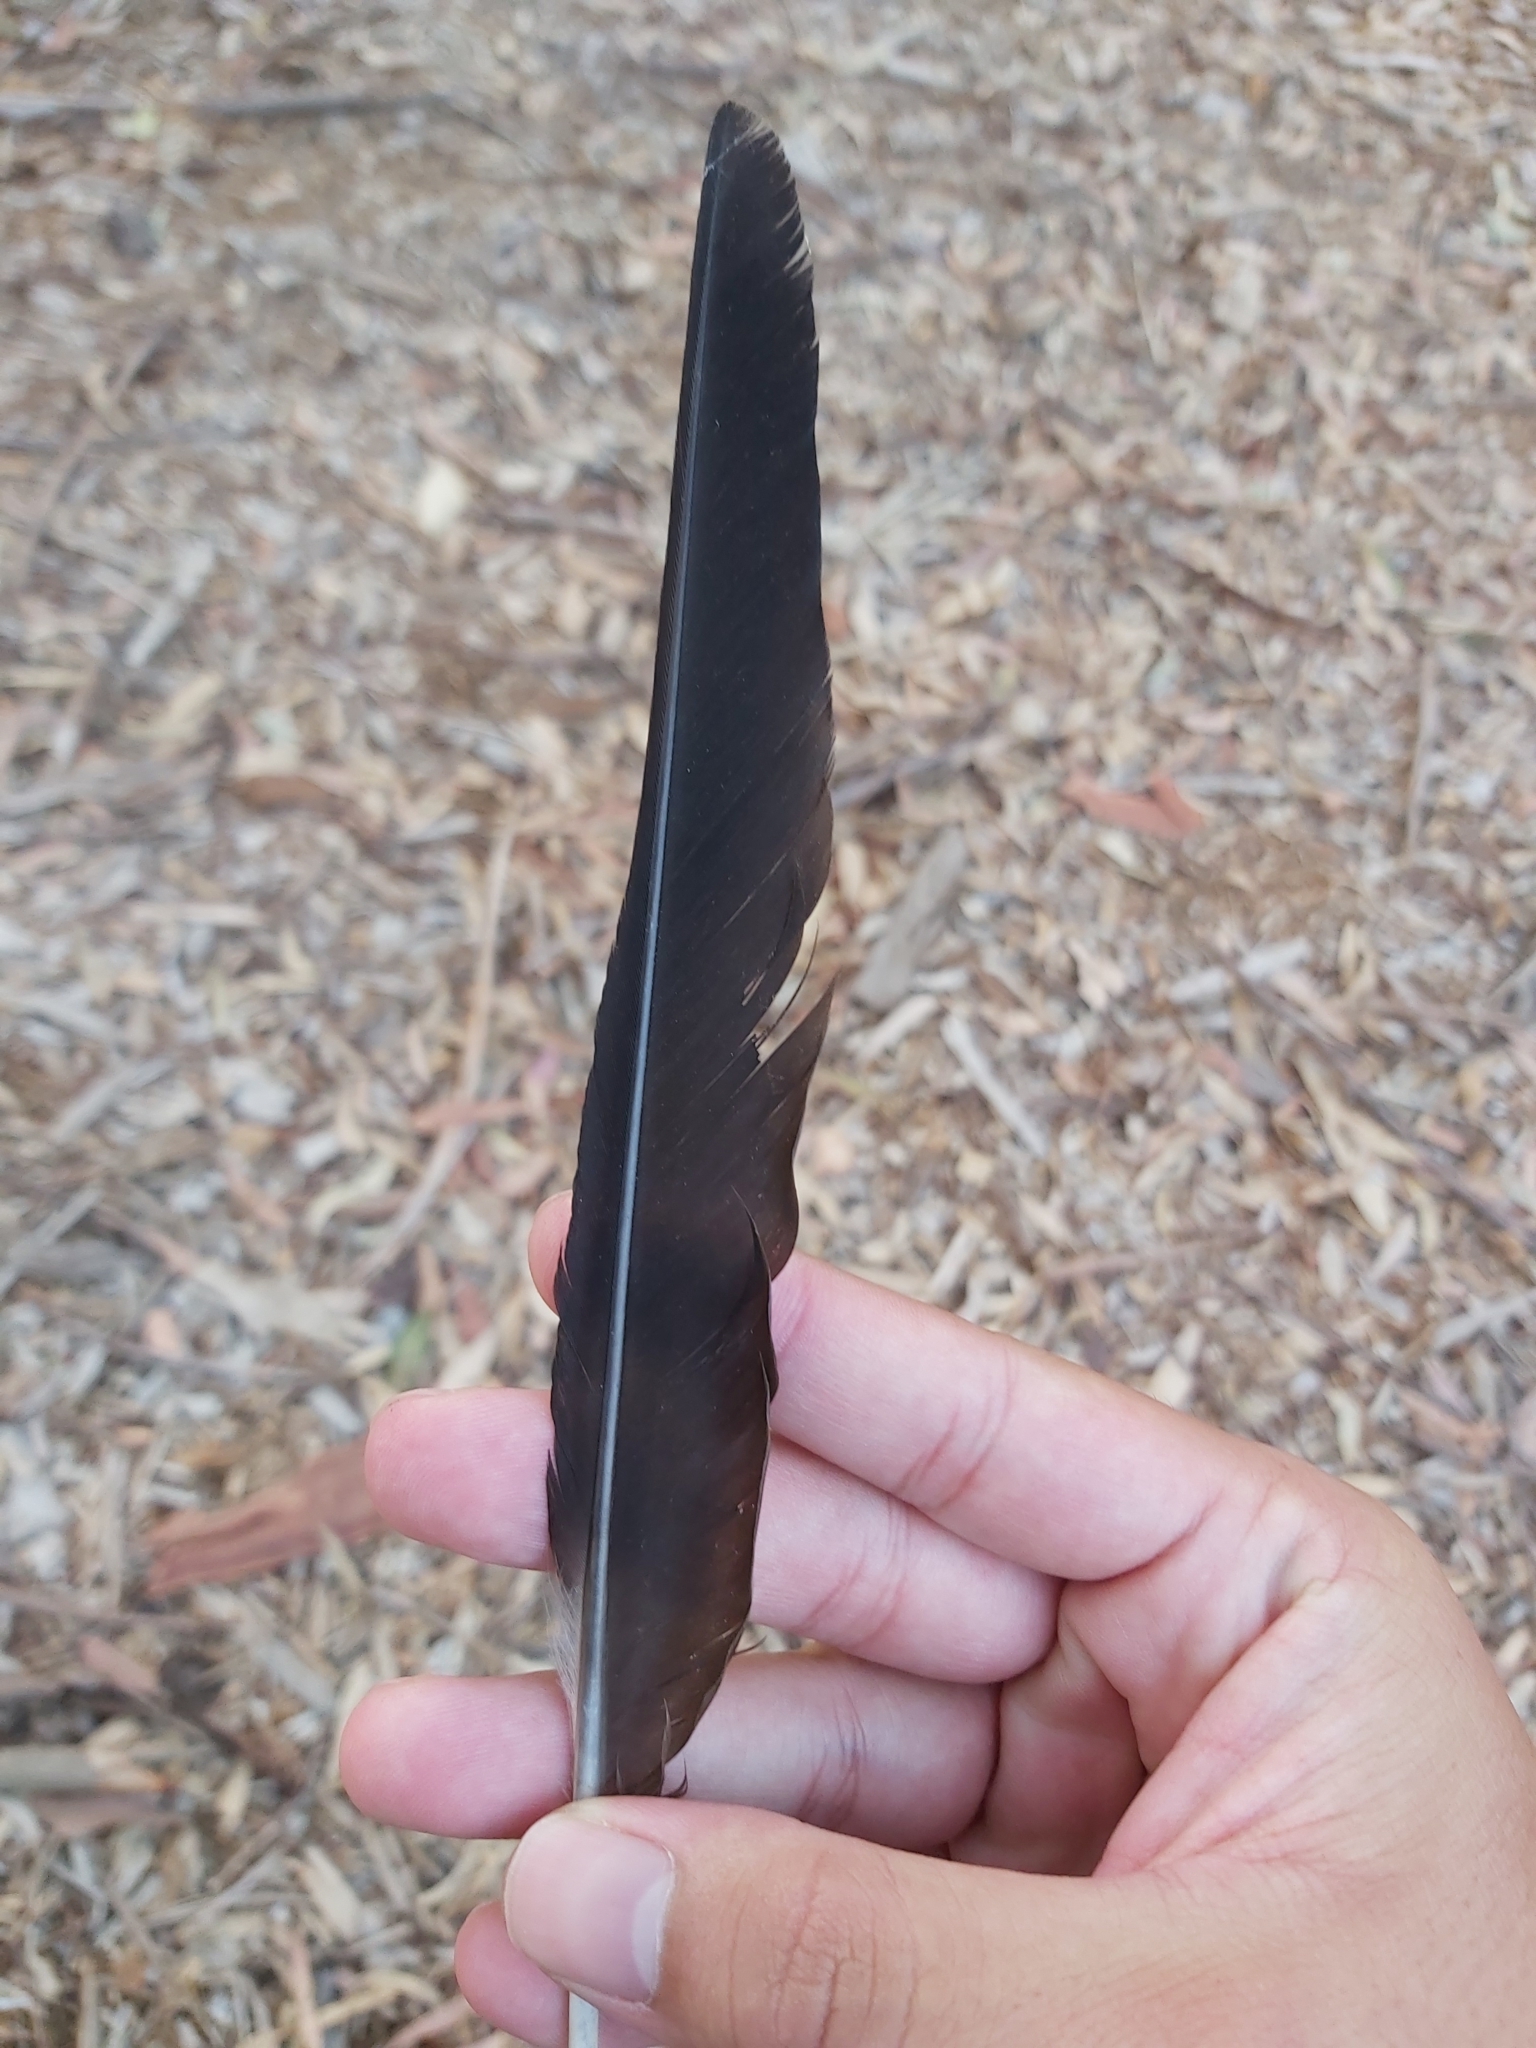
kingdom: Animalia
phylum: Chordata
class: Aves
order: Passeriformes
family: Cracticidae
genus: Gymnorhina
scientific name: Gymnorhina tibicen
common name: Australian magpie
